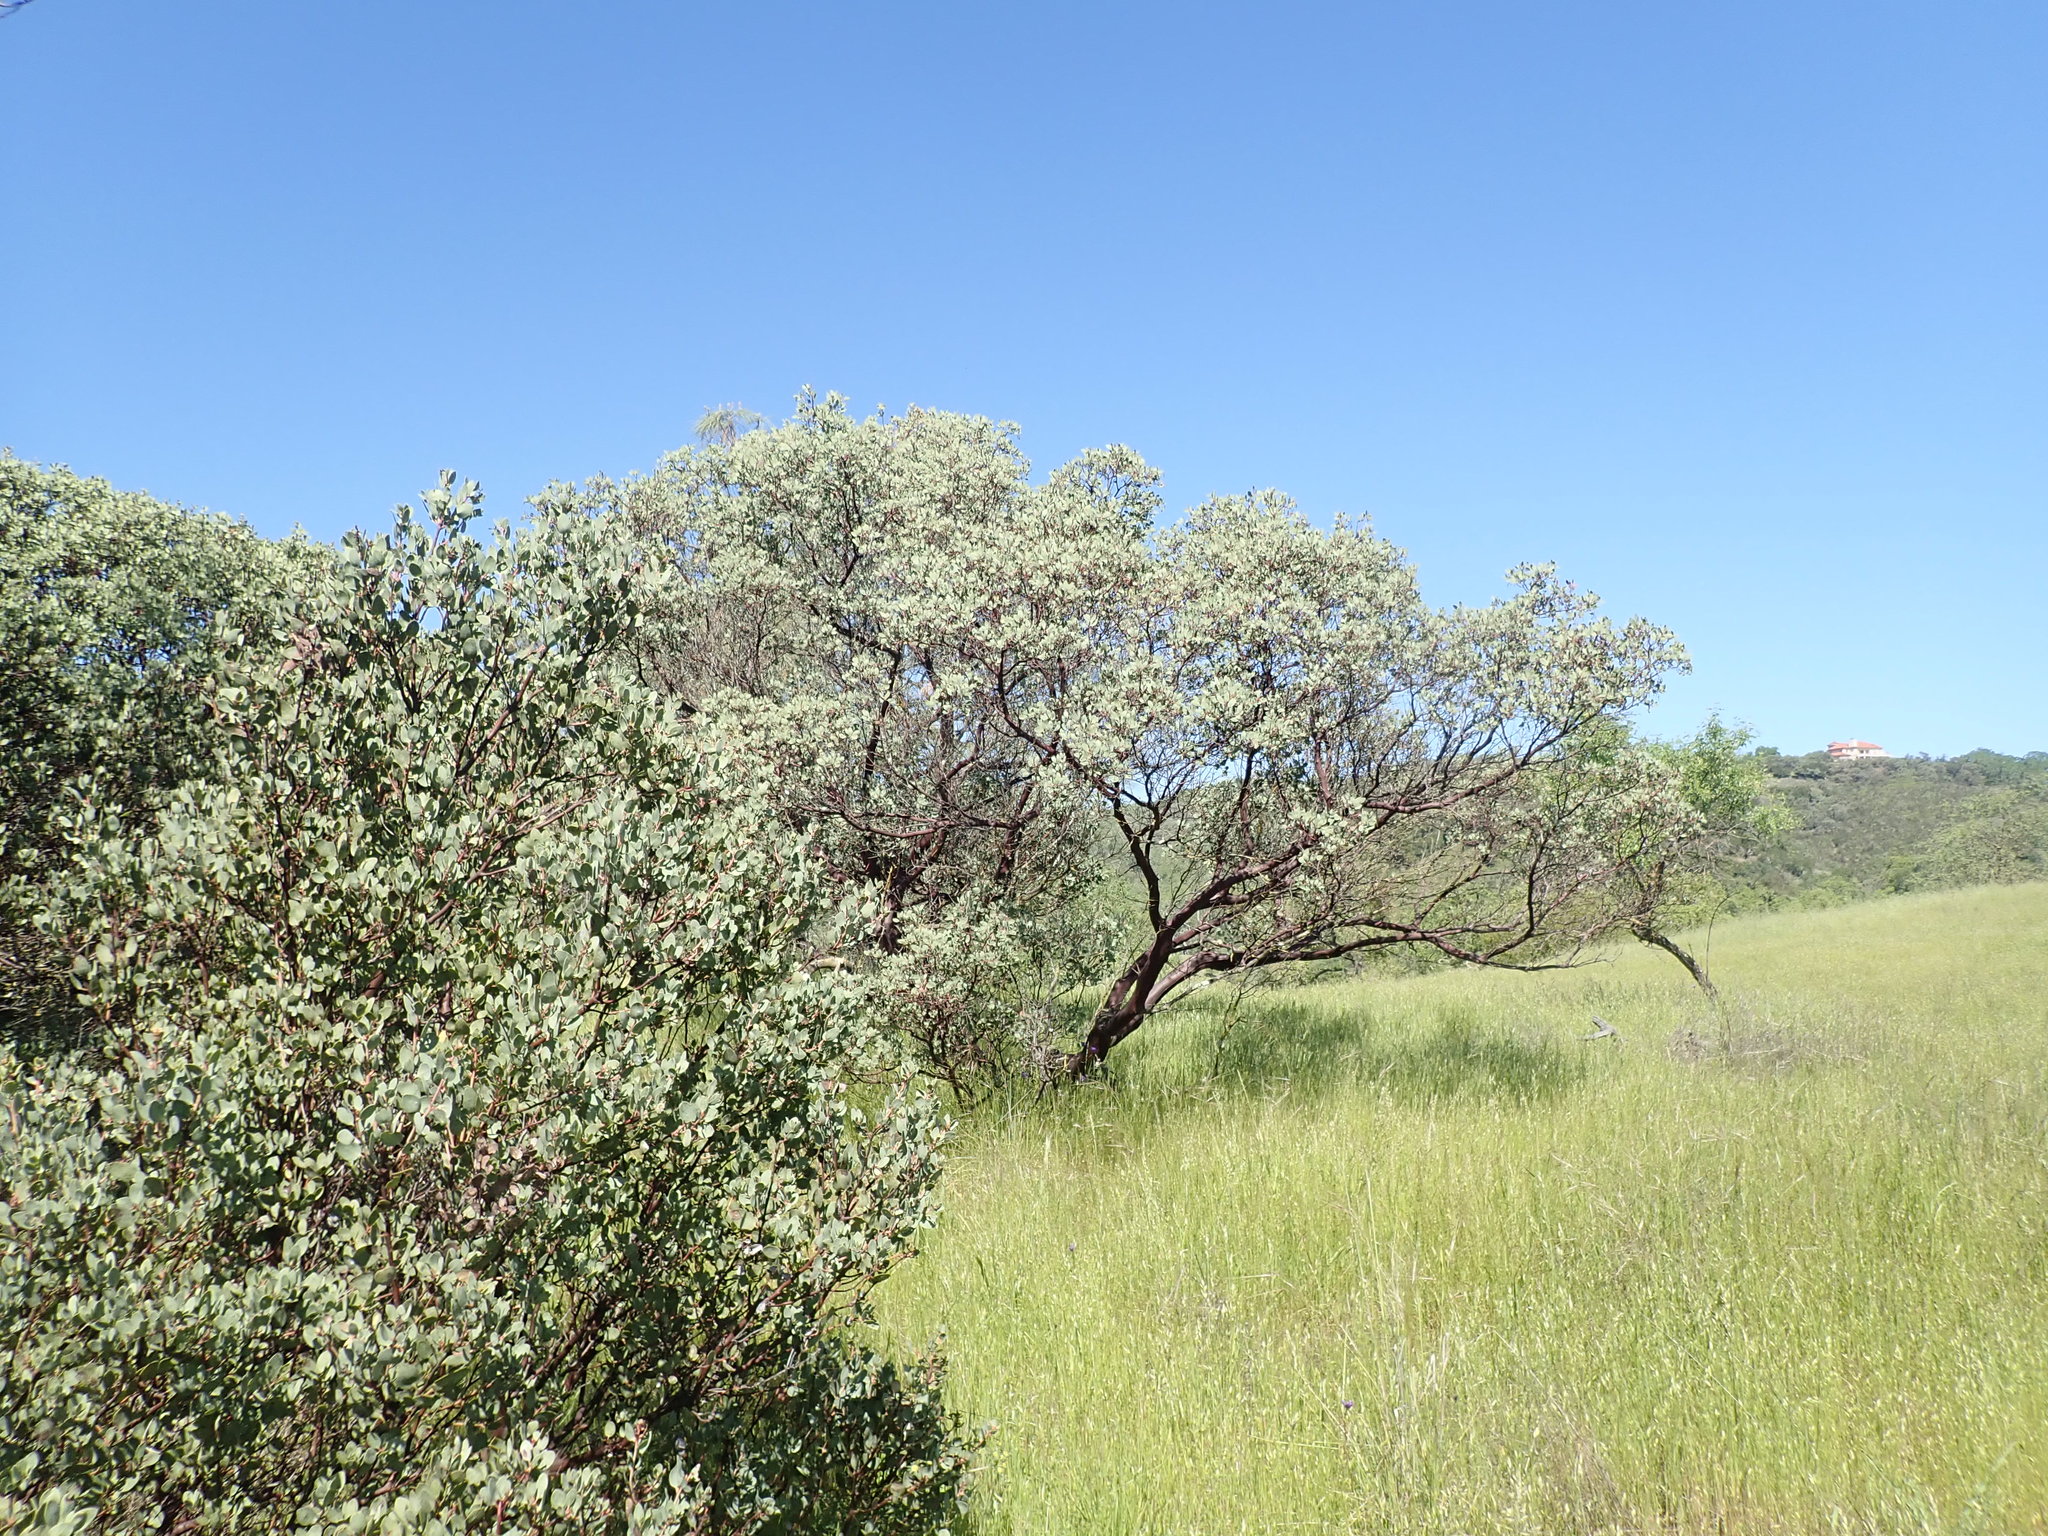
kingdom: Plantae
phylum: Tracheophyta
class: Magnoliopsida
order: Ericales
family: Ericaceae
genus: Arctostaphylos
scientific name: Arctostaphylos glauca
